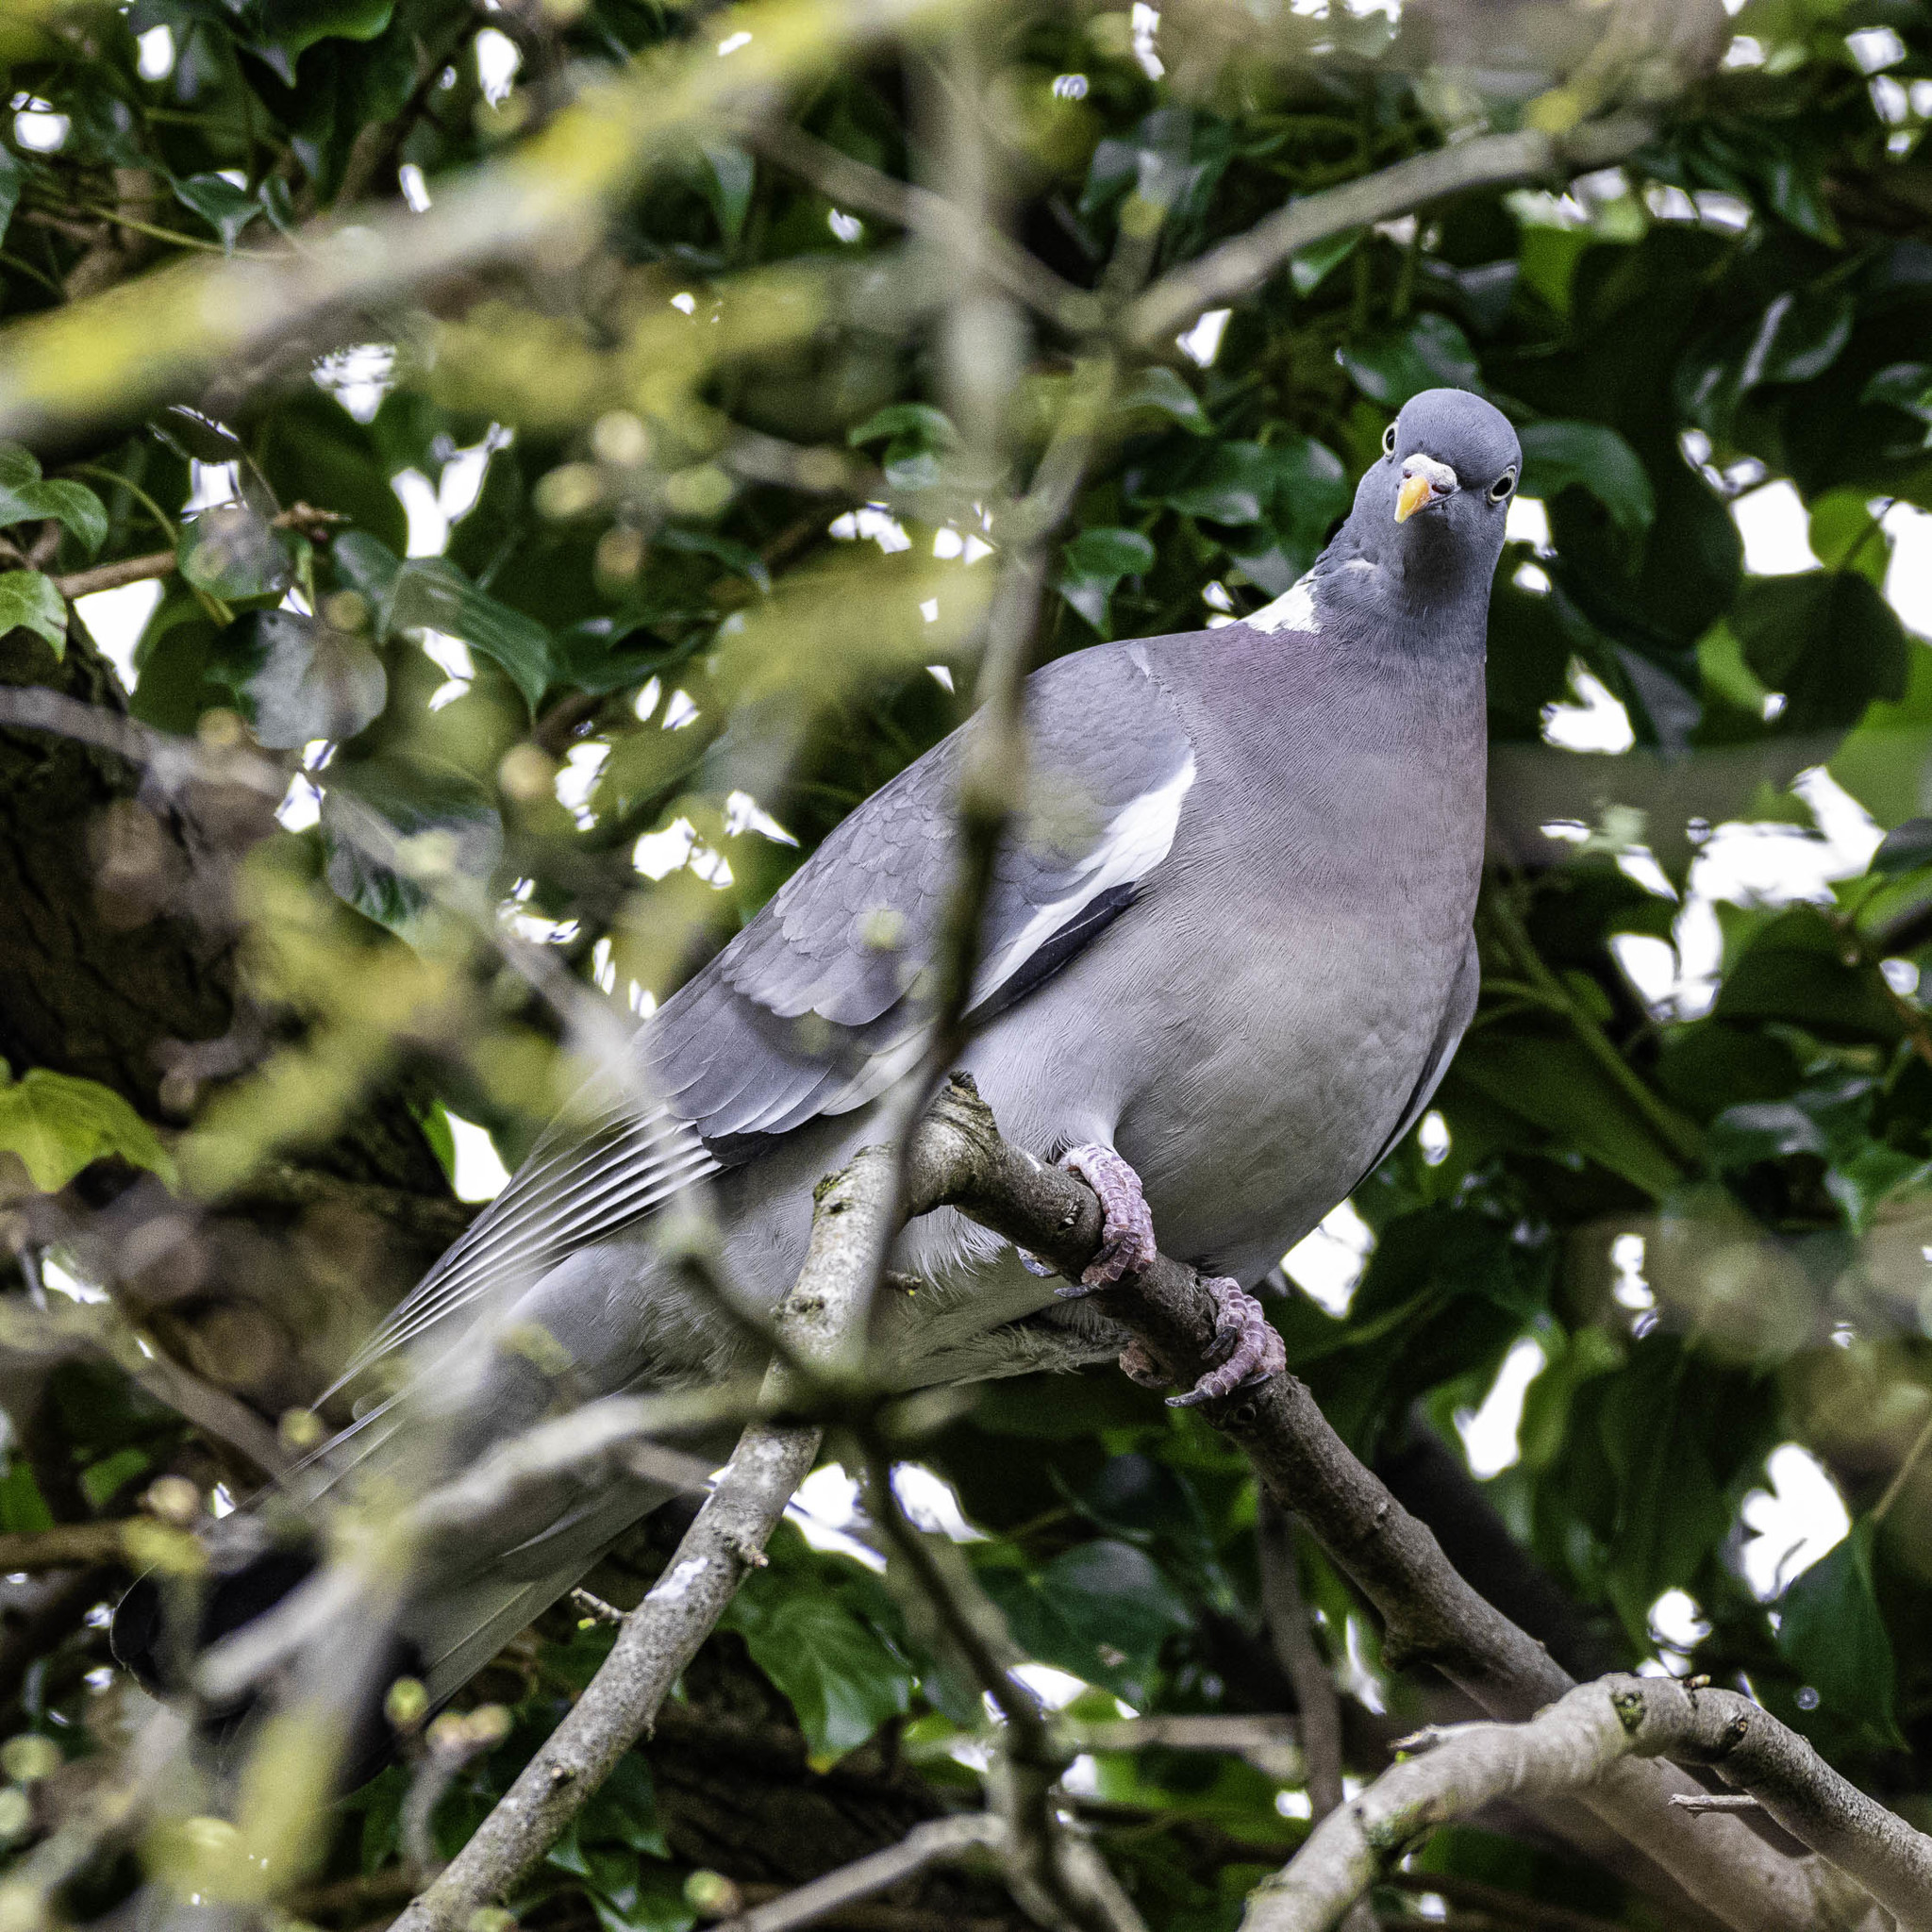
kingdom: Animalia
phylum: Chordata
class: Aves
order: Columbiformes
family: Columbidae
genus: Columba
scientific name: Columba palumbus
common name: Common wood pigeon
